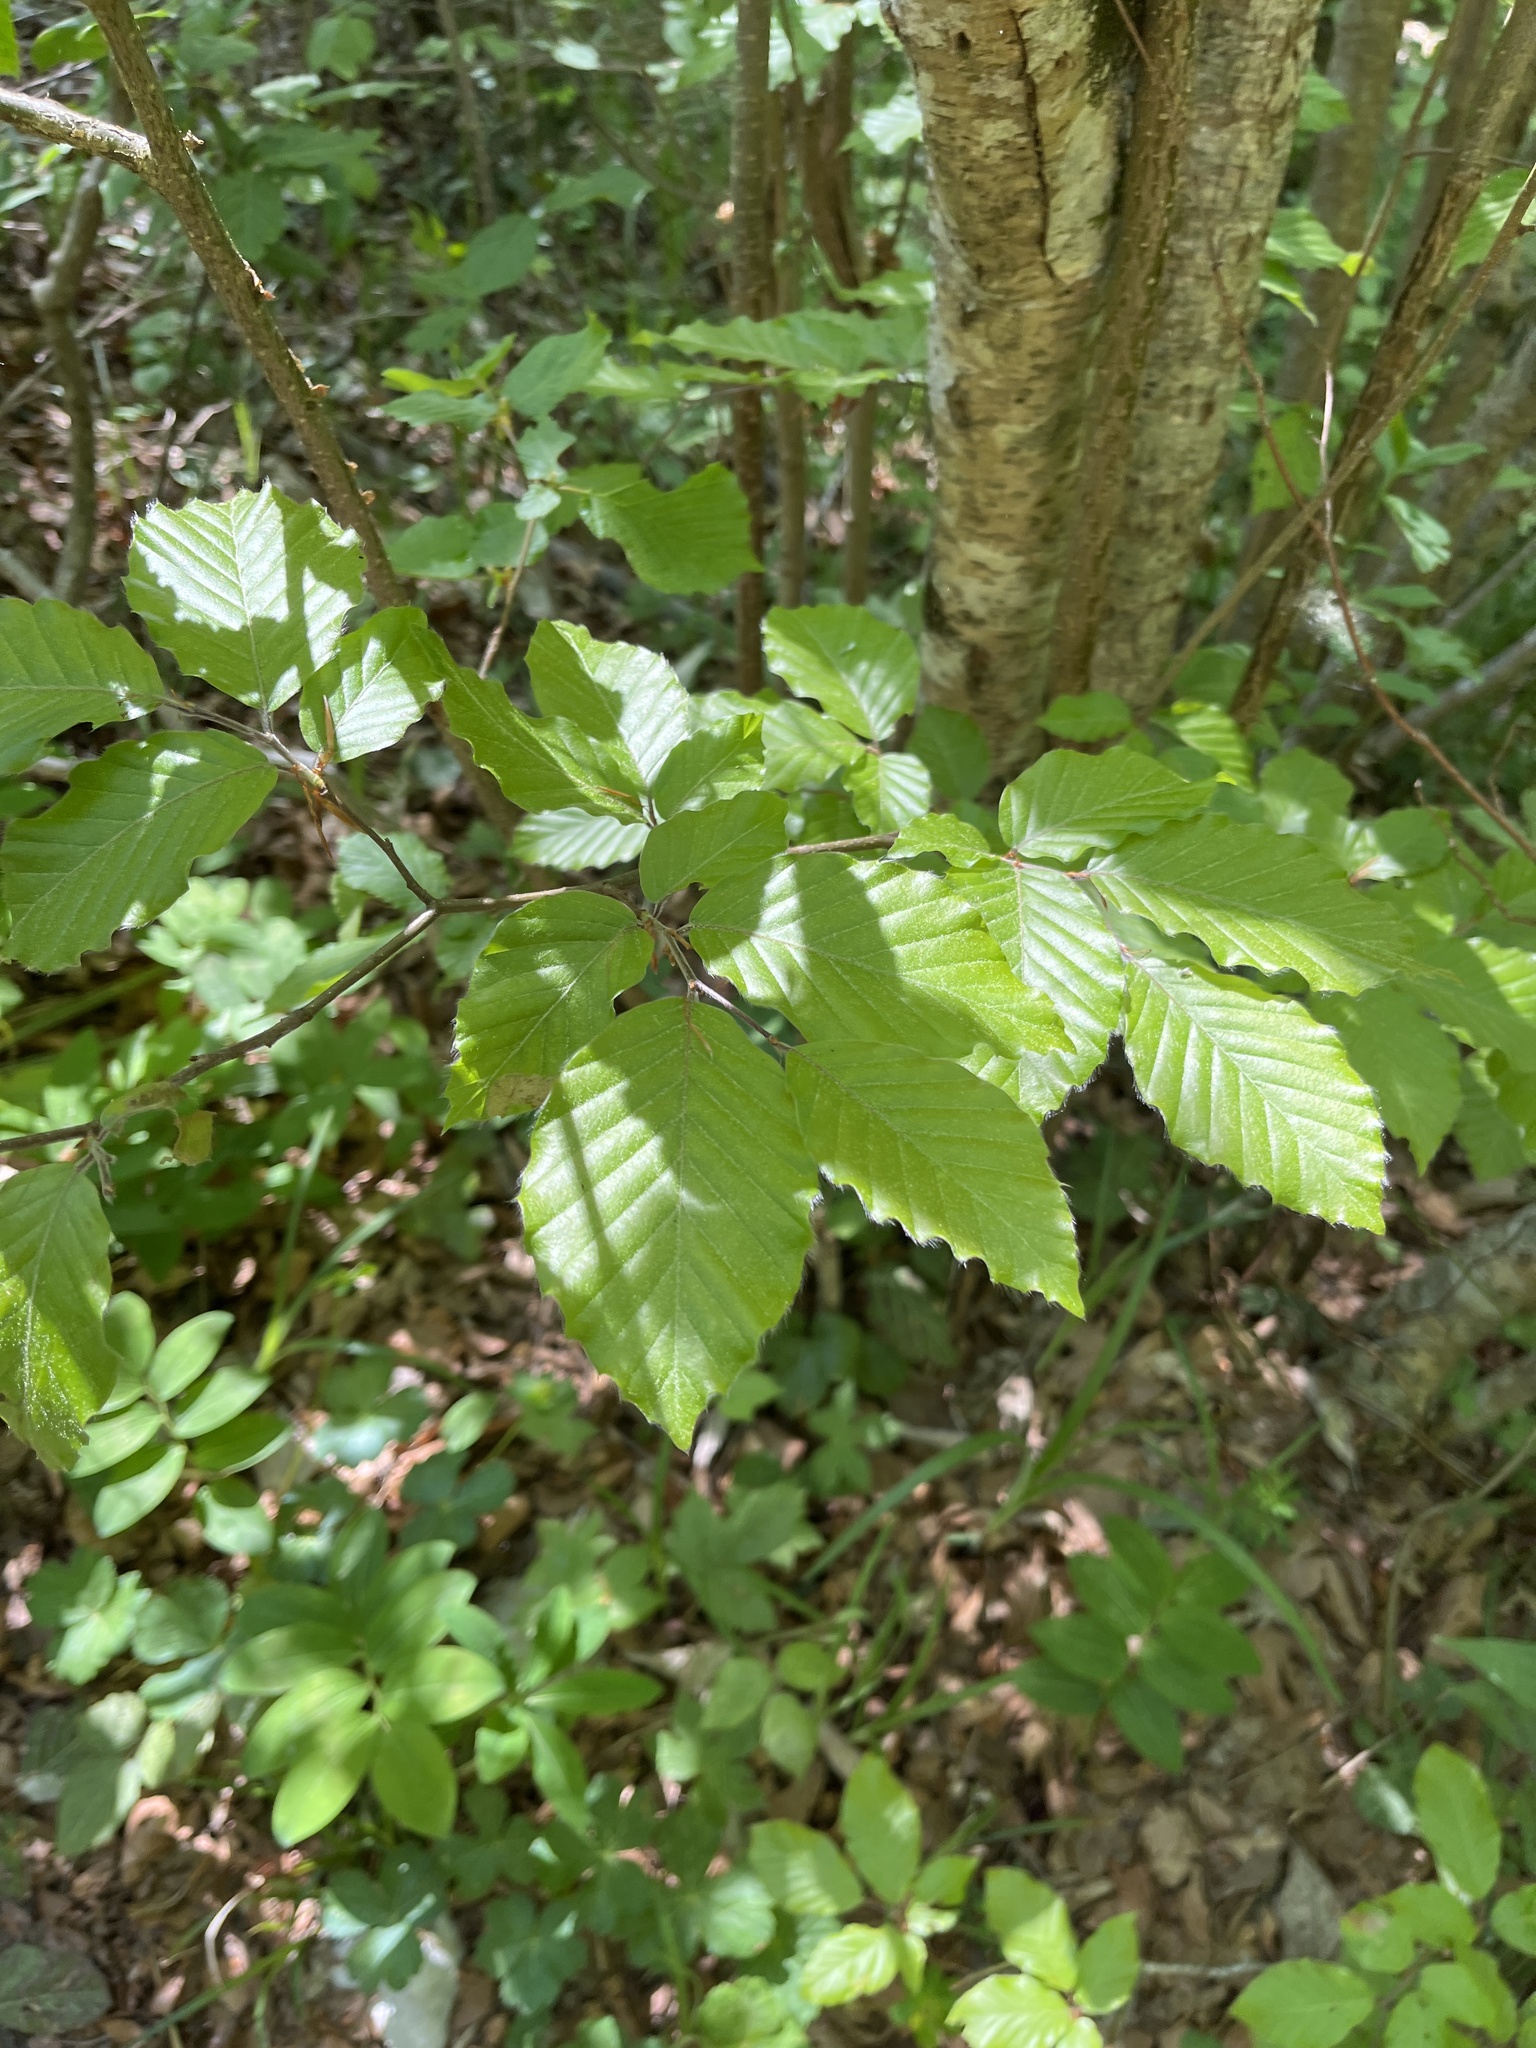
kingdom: Plantae
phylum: Tracheophyta
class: Magnoliopsida
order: Fagales
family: Fagaceae
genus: Fagus
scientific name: Fagus sylvatica
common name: Beech
